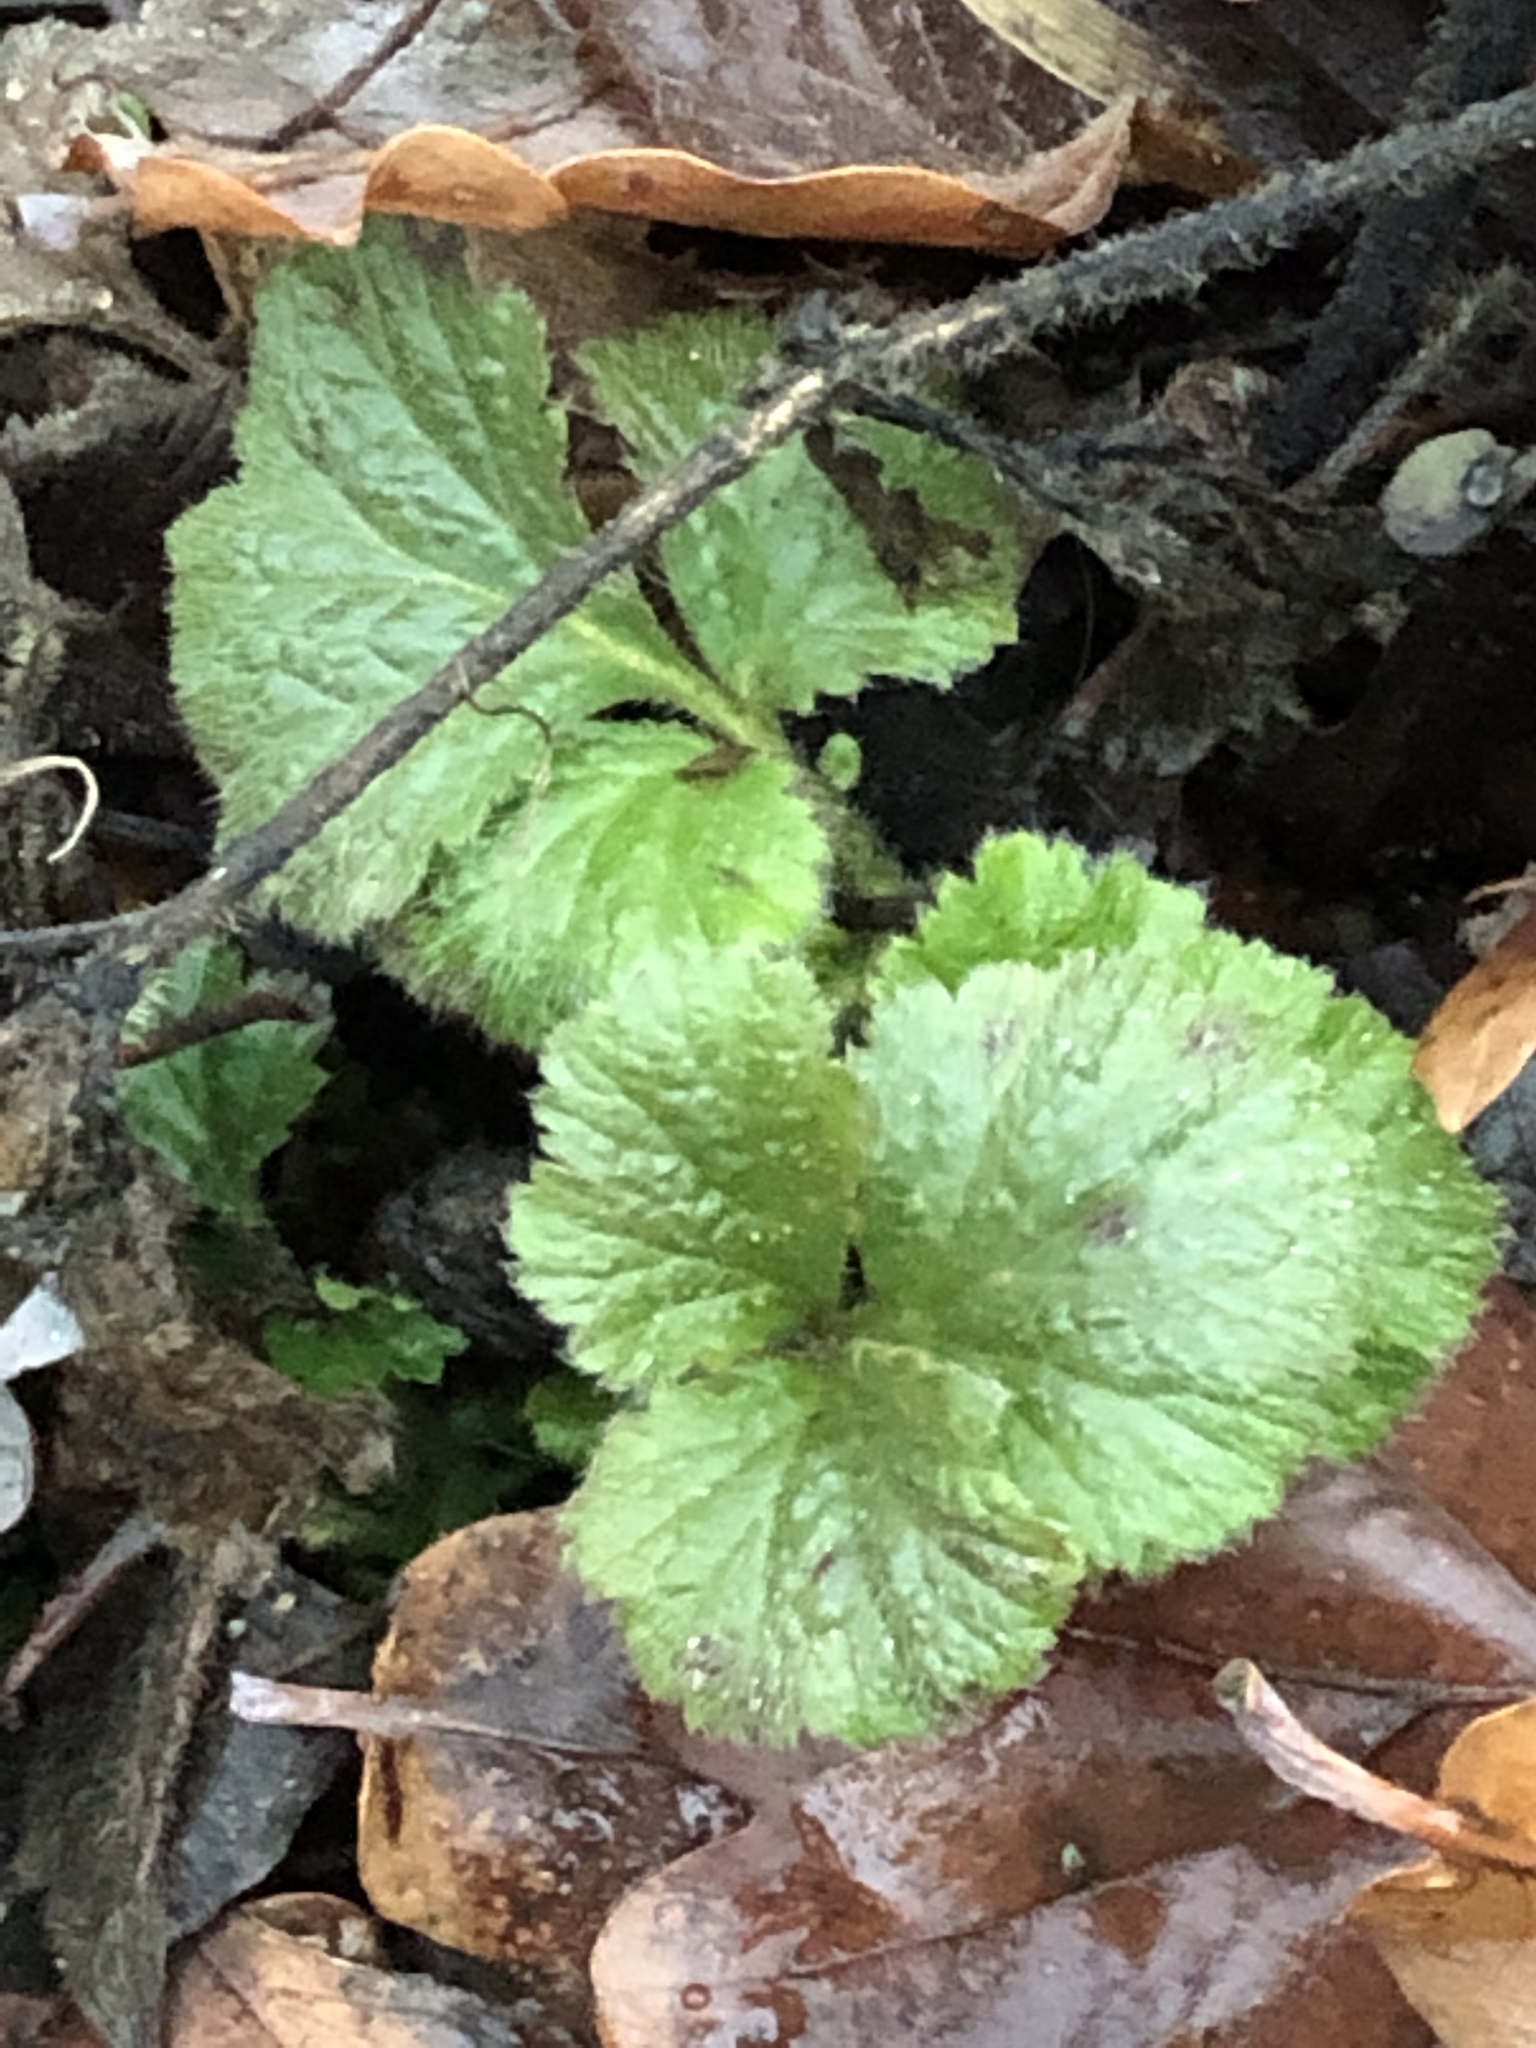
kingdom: Plantae
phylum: Tracheophyta
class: Magnoliopsida
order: Rosales
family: Rosaceae
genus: Geum
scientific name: Geum urbanum
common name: Wood avens
